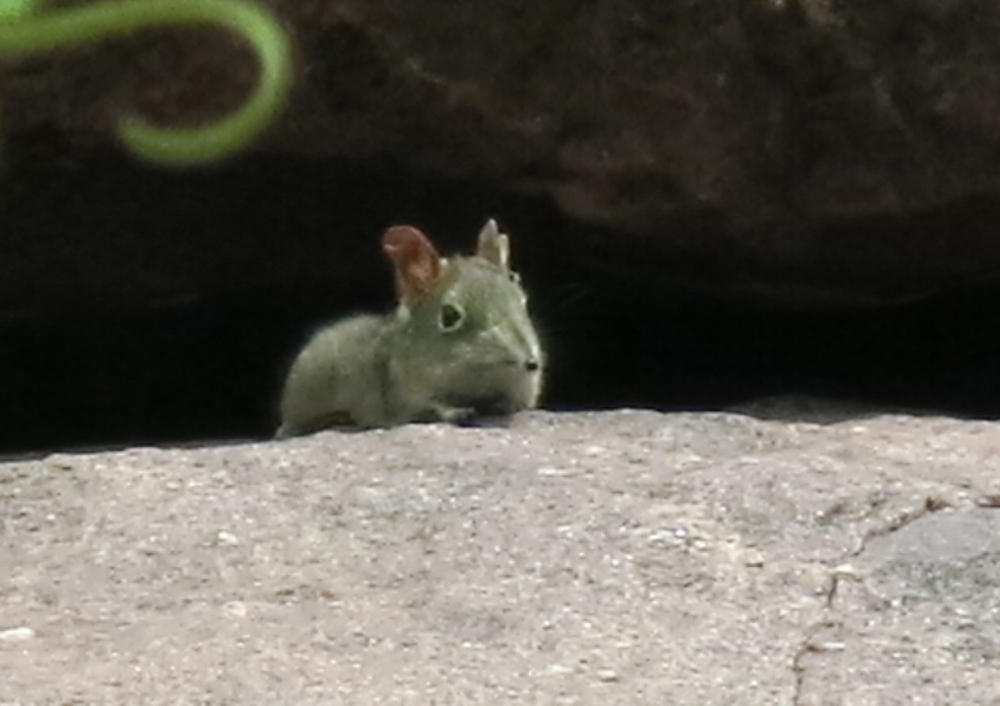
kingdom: Animalia
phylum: Chordata
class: Mammalia
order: Macroscelidea
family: Macroscelididae
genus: Elephantulus
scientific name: Elephantulus myurus
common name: Eastern rock elephant shrew
